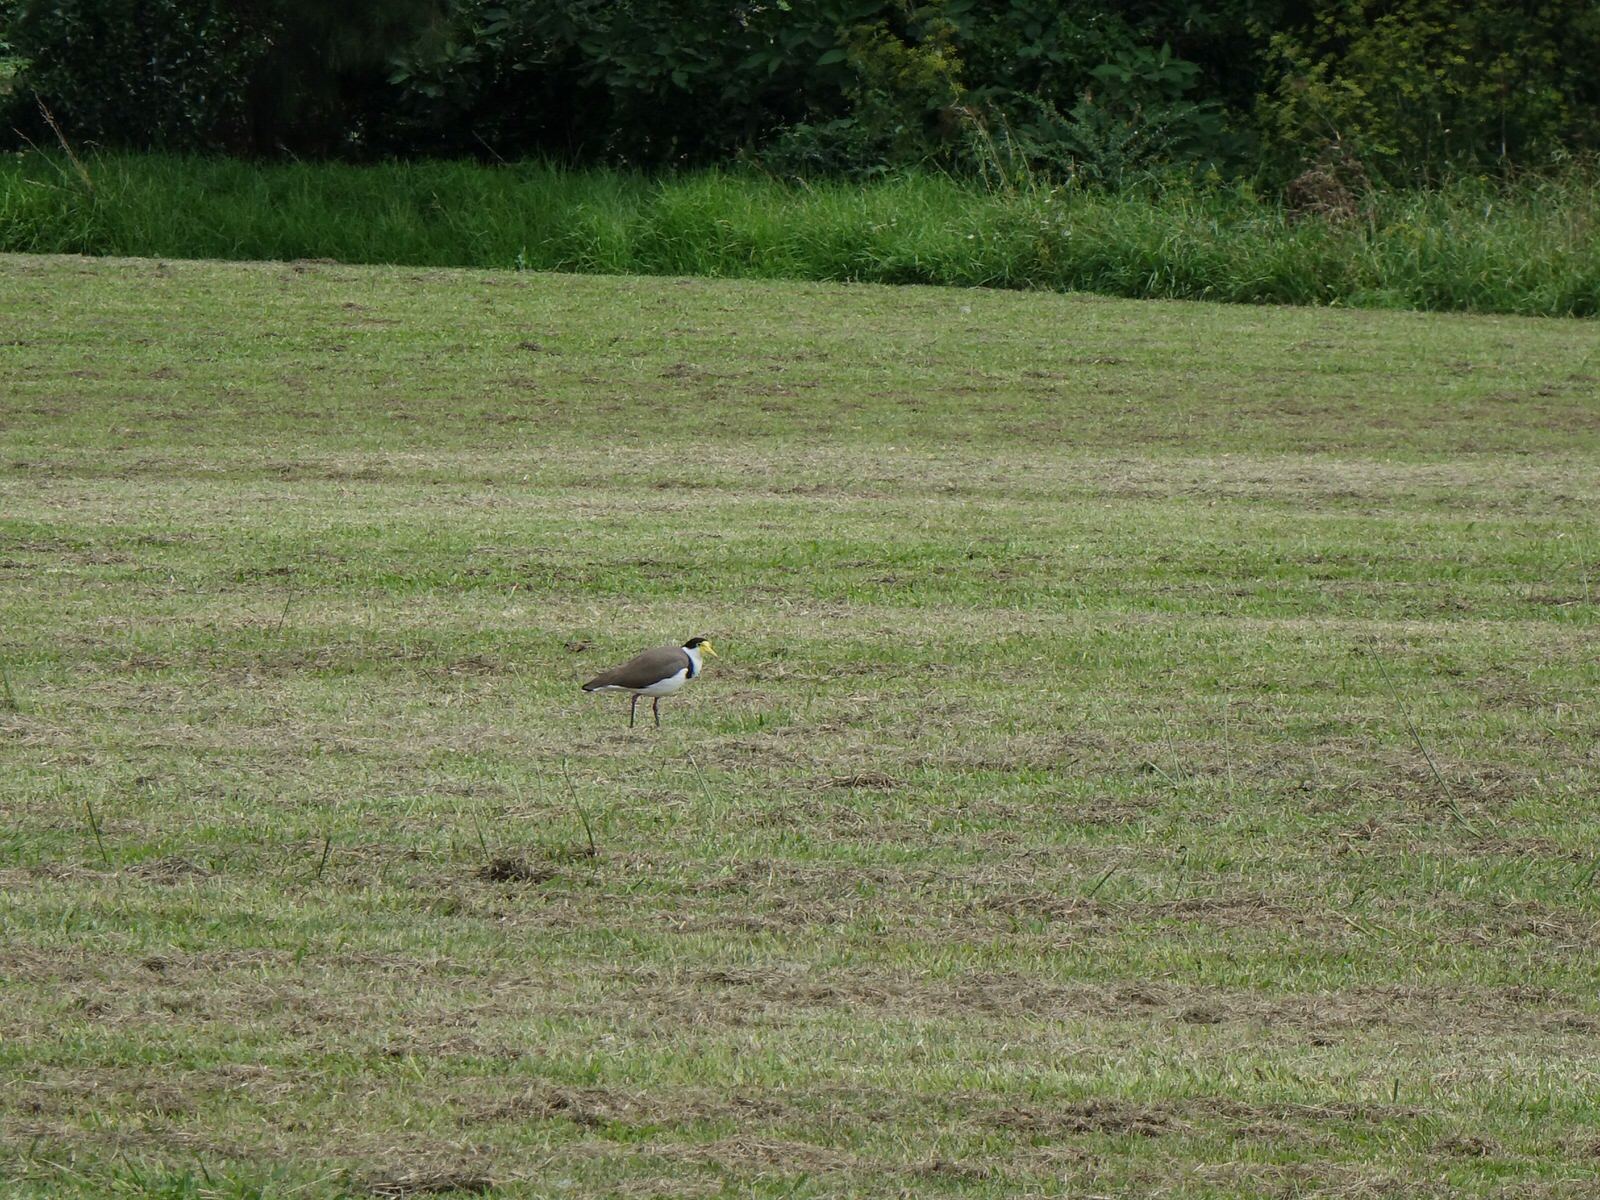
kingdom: Animalia
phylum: Chordata
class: Aves
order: Charadriiformes
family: Charadriidae
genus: Vanellus
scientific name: Vanellus miles
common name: Masked lapwing
